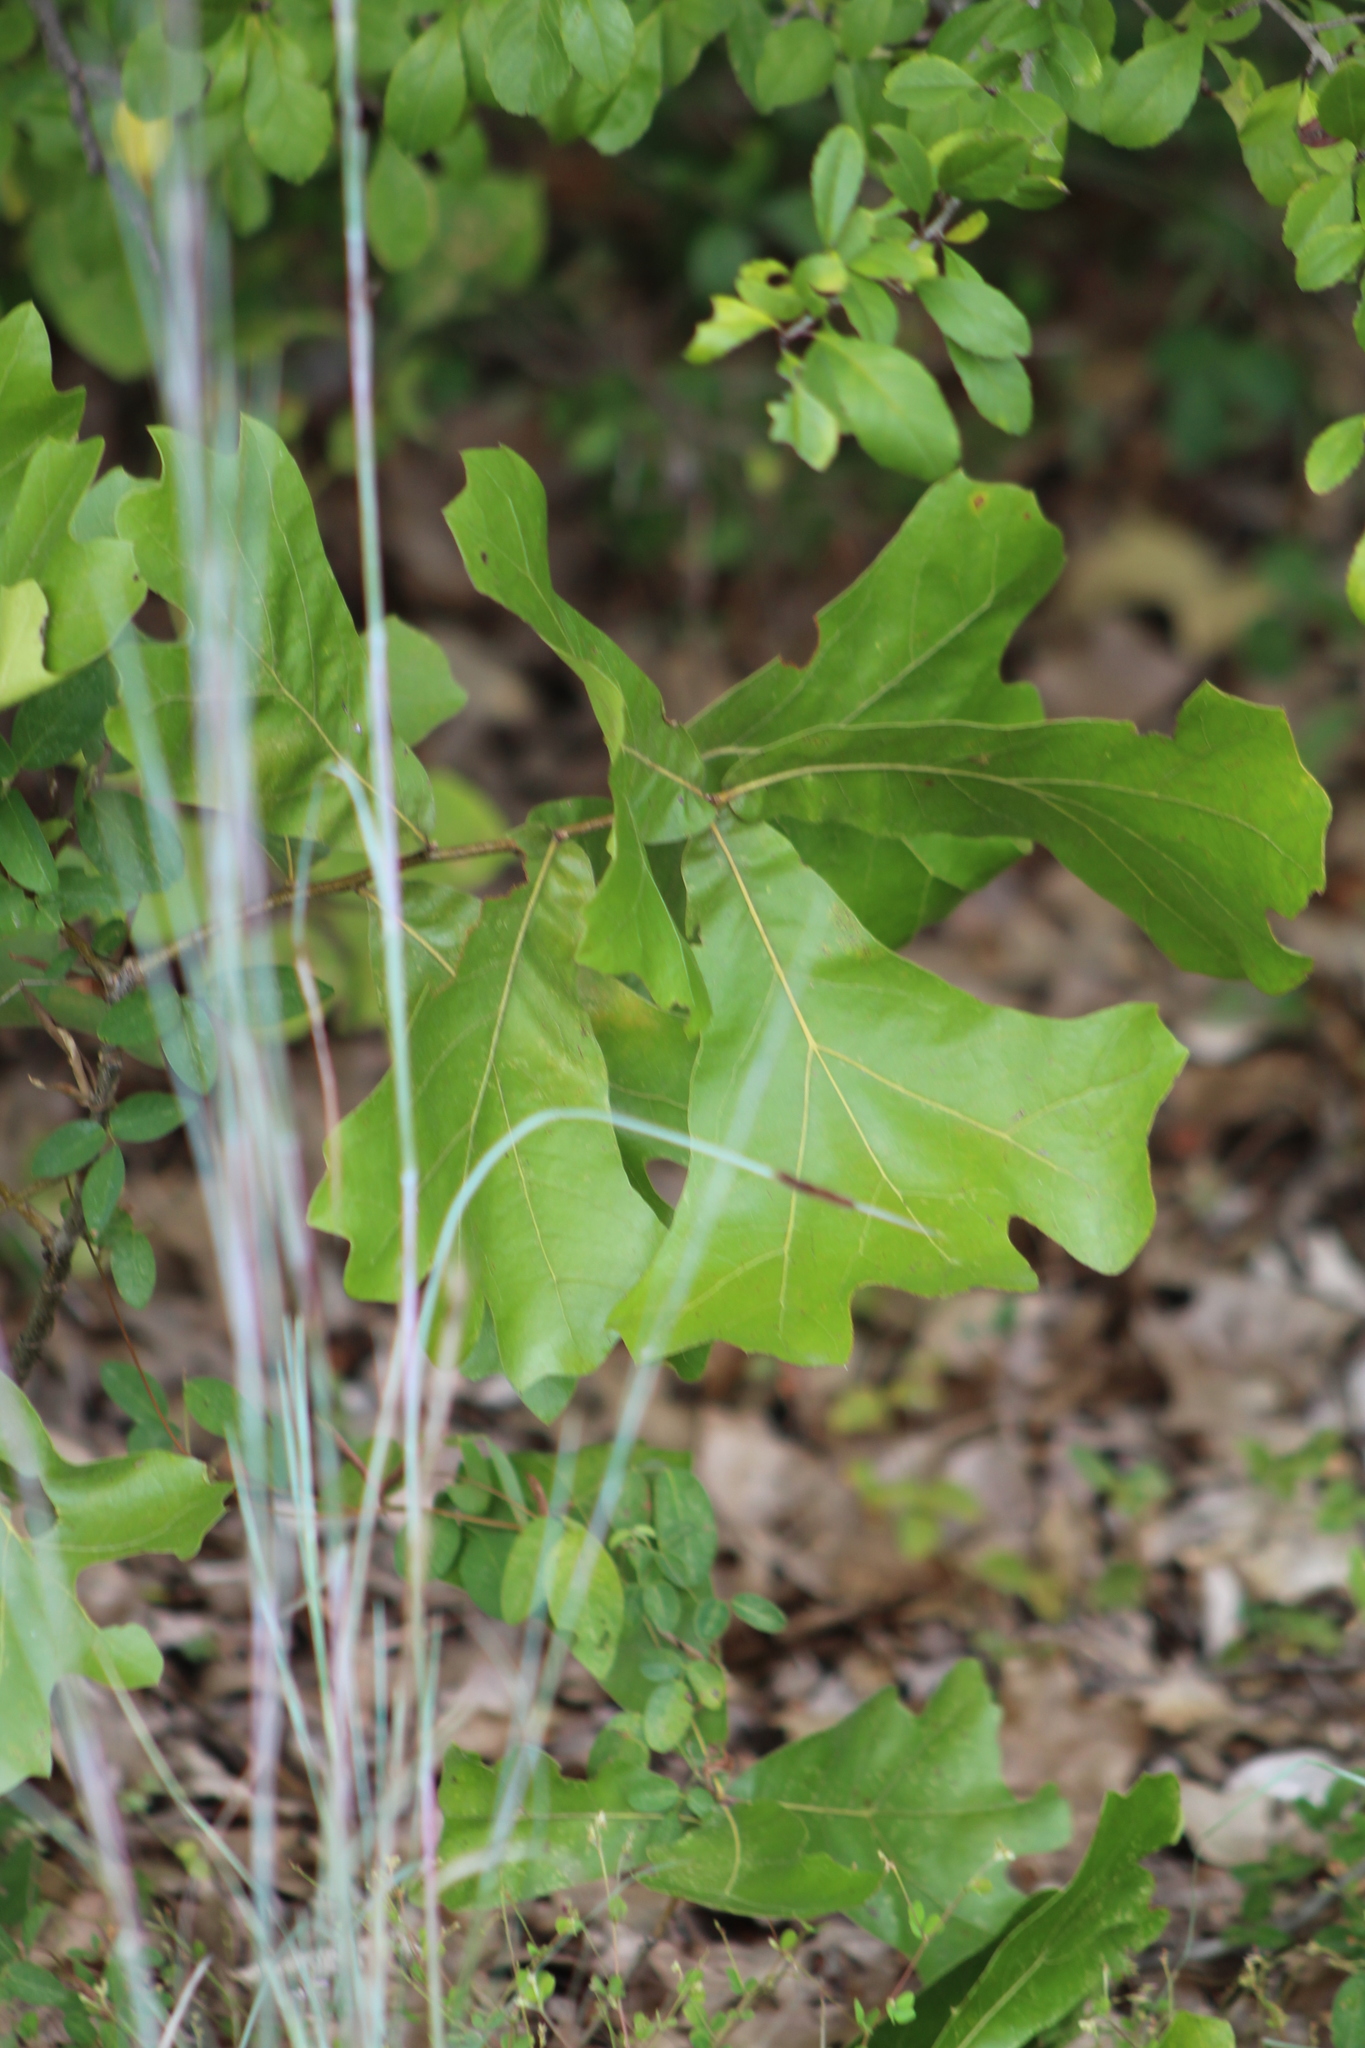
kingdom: Plantae
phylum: Tracheophyta
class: Magnoliopsida
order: Fagales
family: Fagaceae
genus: Quercus
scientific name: Quercus marilandica
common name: Blackjack oak
